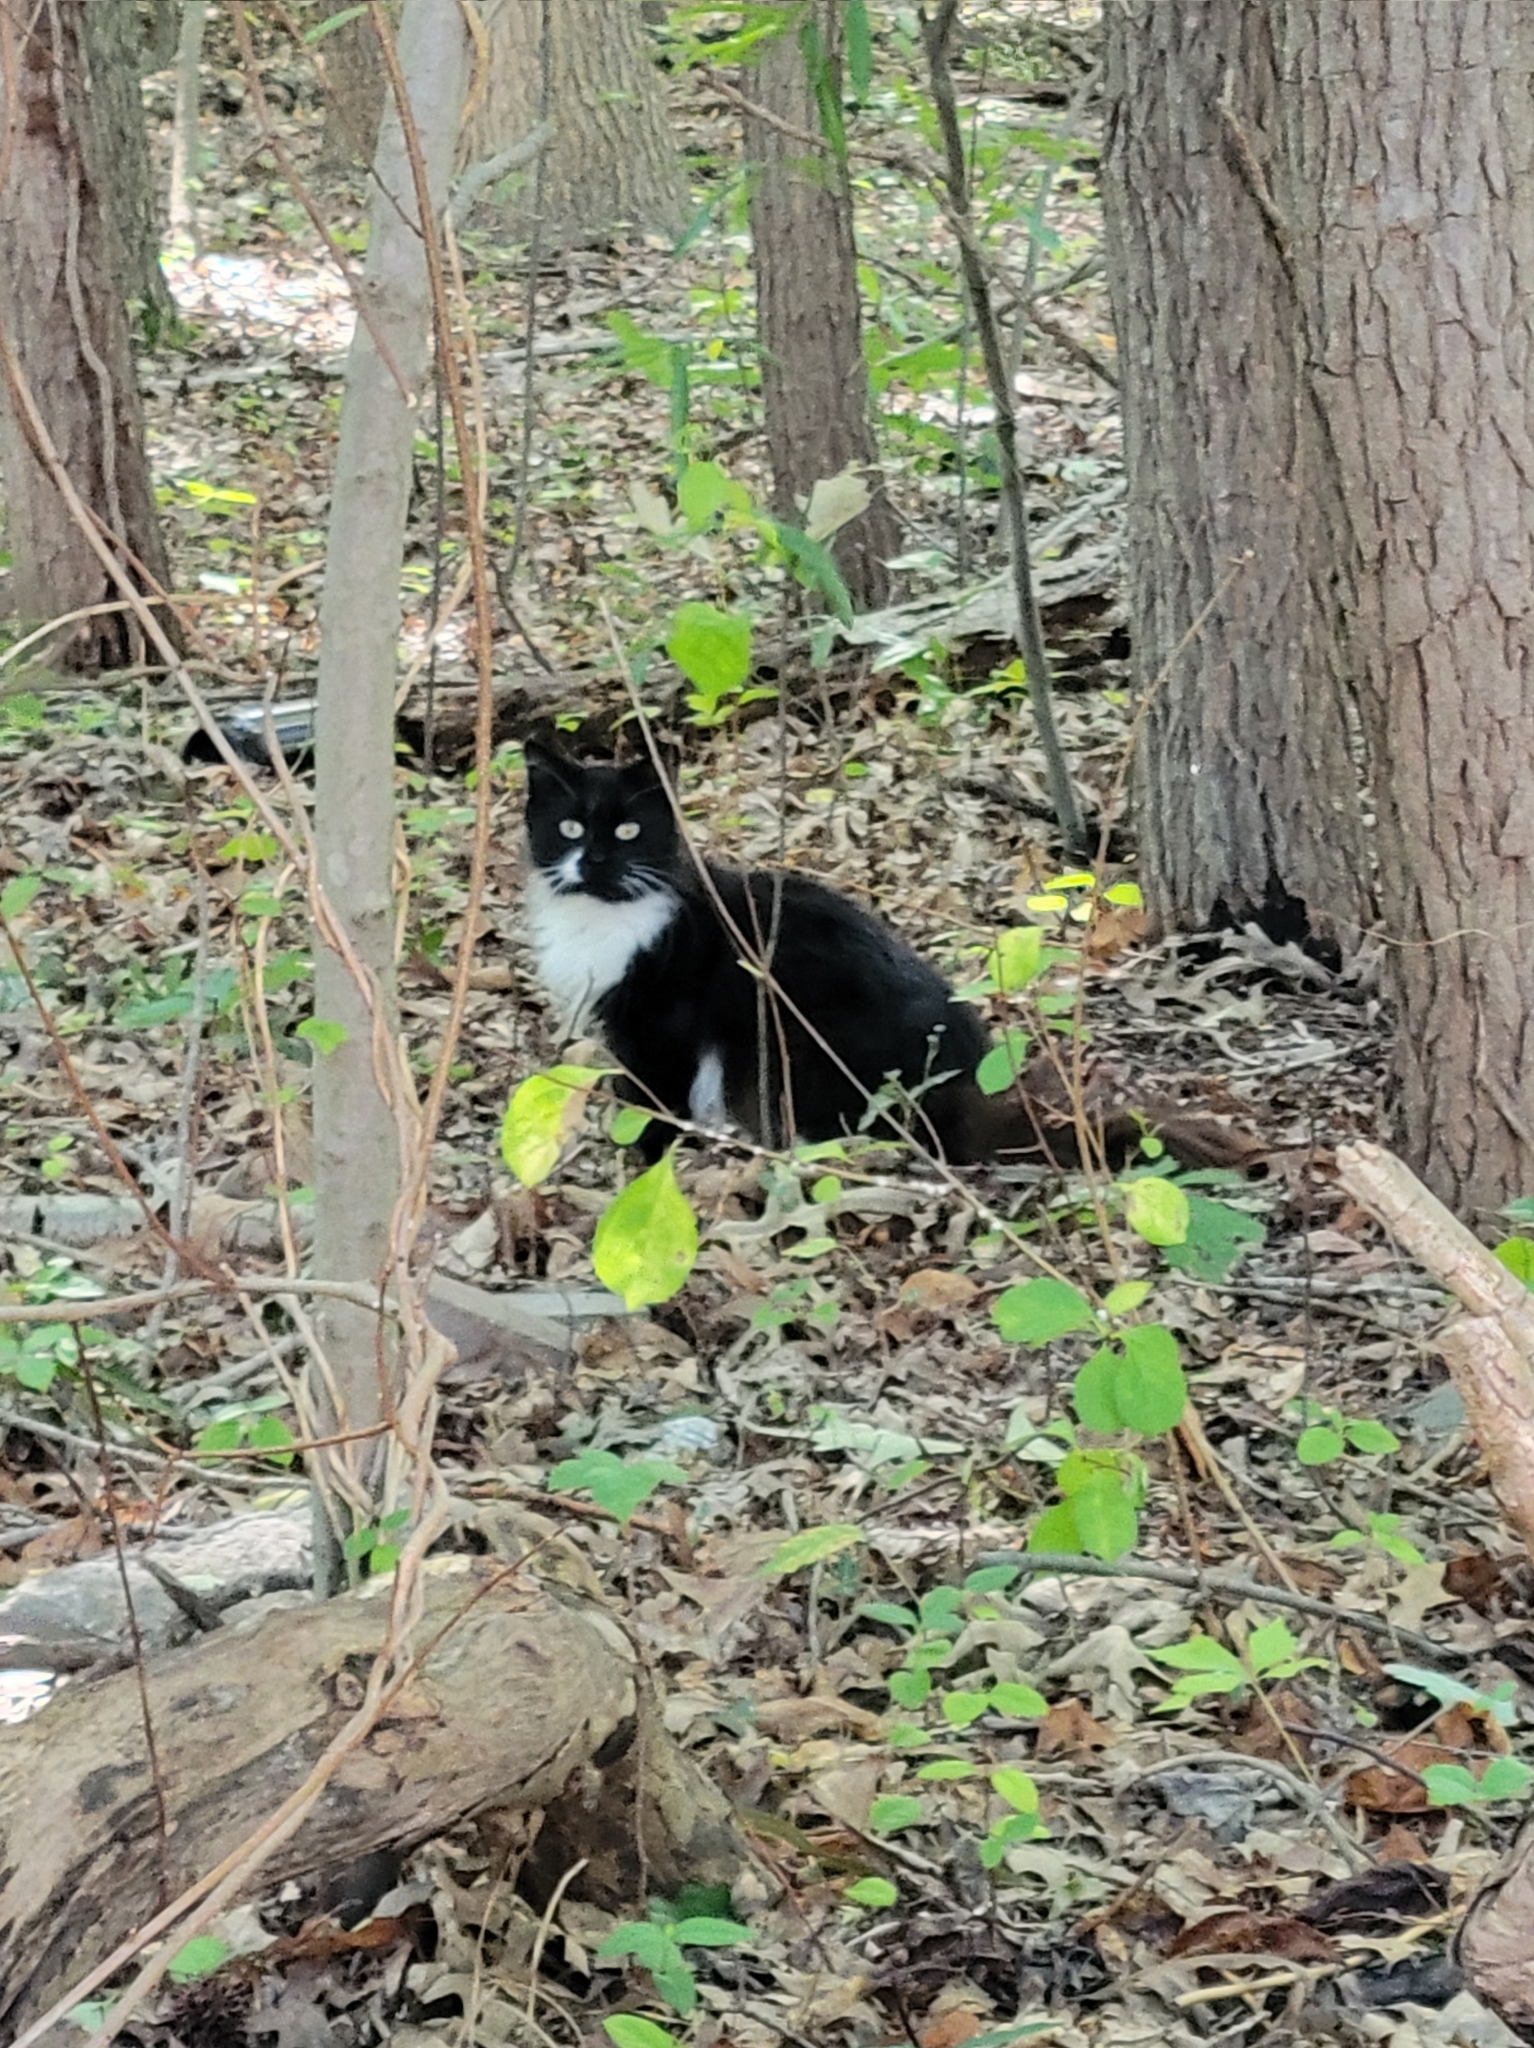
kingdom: Animalia
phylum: Chordata
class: Mammalia
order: Carnivora
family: Felidae
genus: Felis
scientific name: Felis catus
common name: Domestic cat
